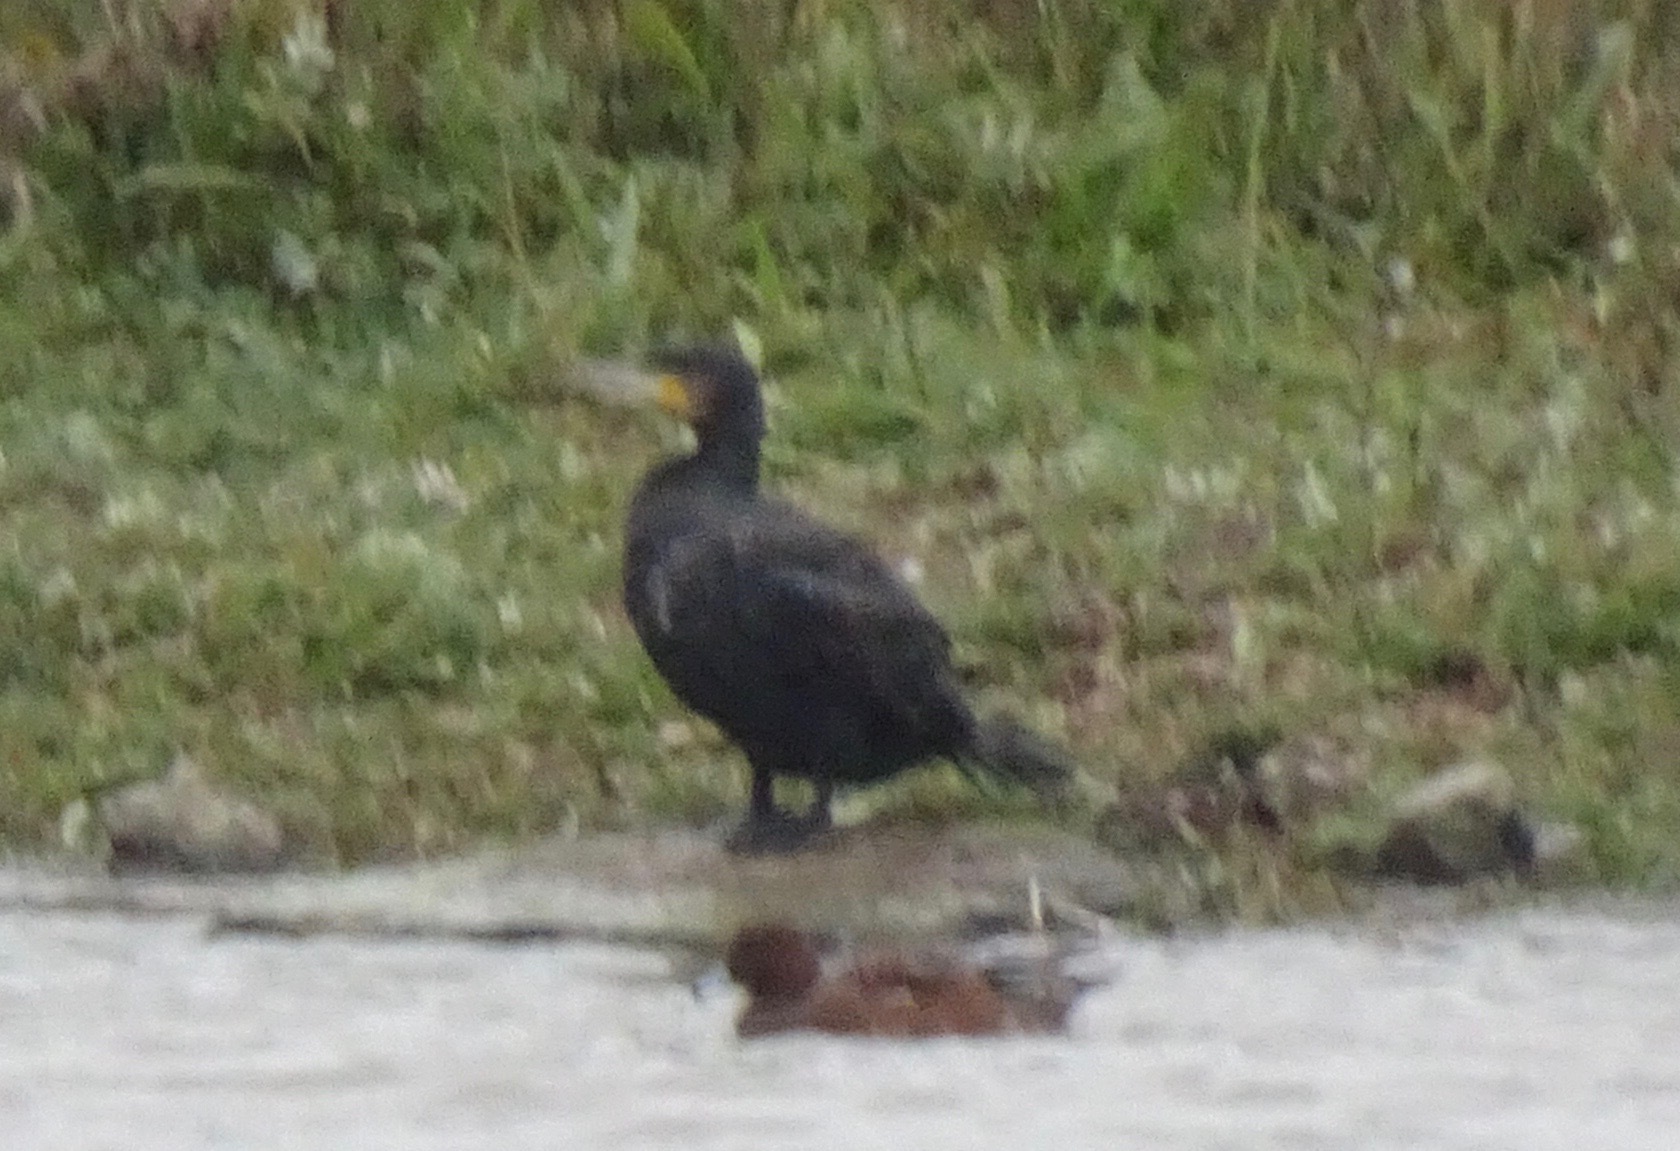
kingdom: Animalia
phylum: Chordata
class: Aves
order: Suliformes
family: Phalacrocoracidae
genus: Phalacrocorax
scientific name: Phalacrocorax carbo
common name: Great cormorant
